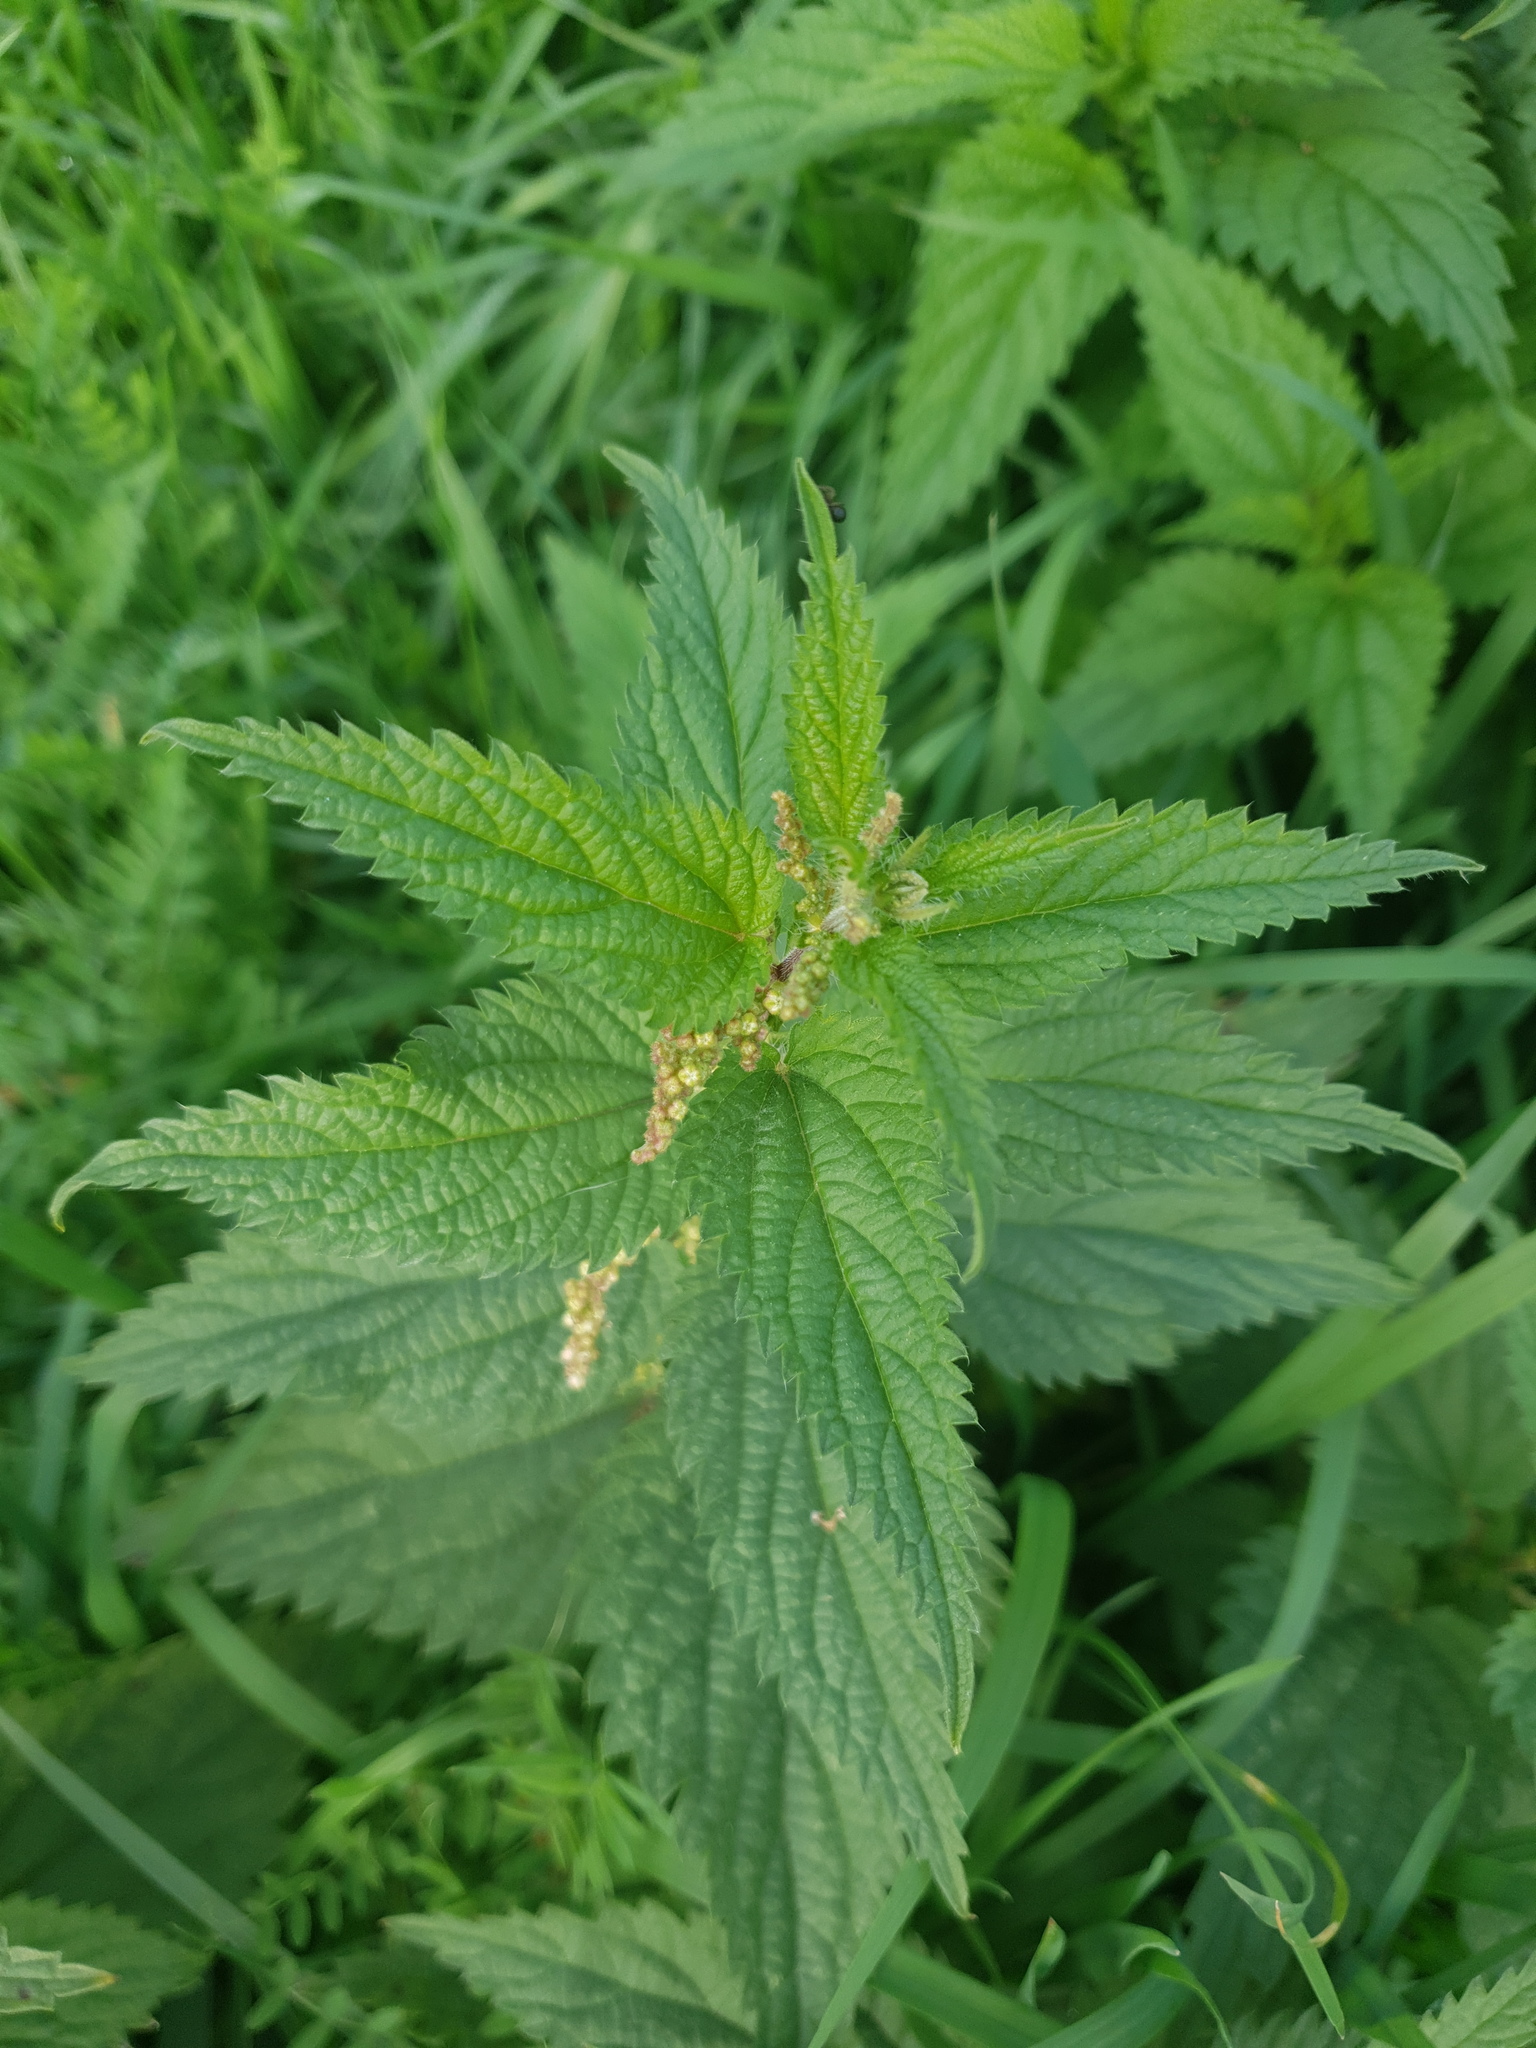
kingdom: Plantae
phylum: Tracheophyta
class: Magnoliopsida
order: Rosales
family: Urticaceae
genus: Urtica
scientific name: Urtica dioica
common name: Common nettle
